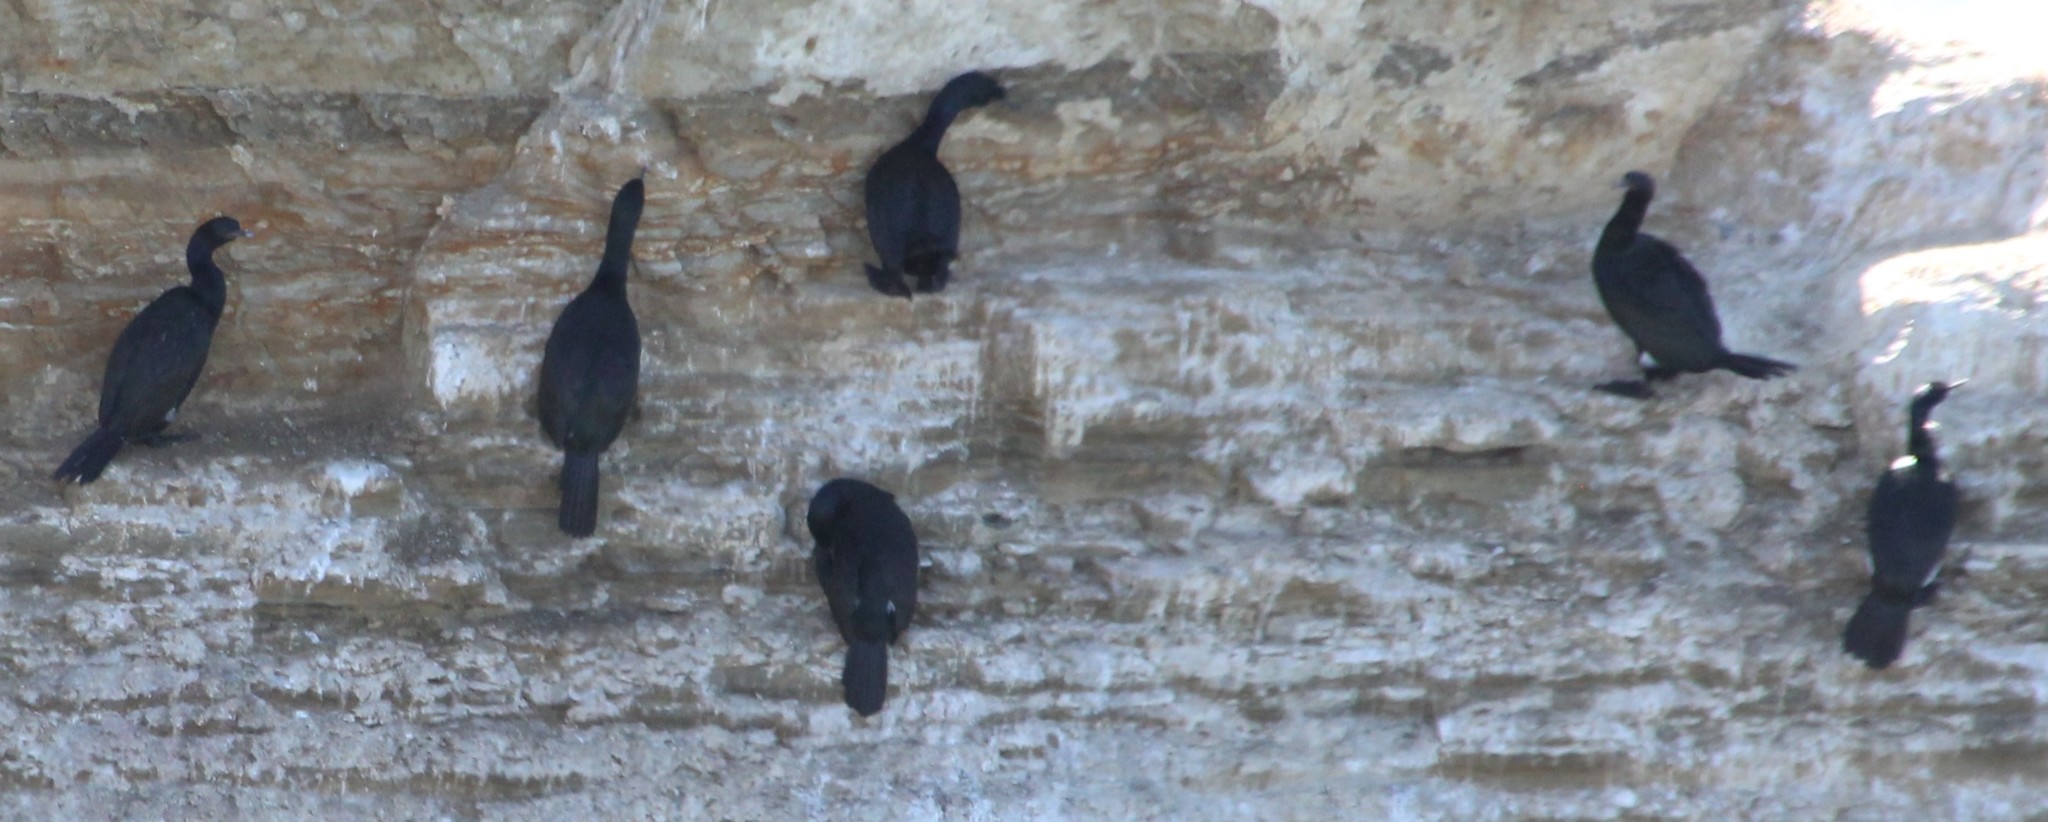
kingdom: Animalia
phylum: Chordata
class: Aves
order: Suliformes
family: Phalacrocoracidae
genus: Phalacrocorax
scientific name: Phalacrocorax pelagicus
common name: Pelagic cormorant
